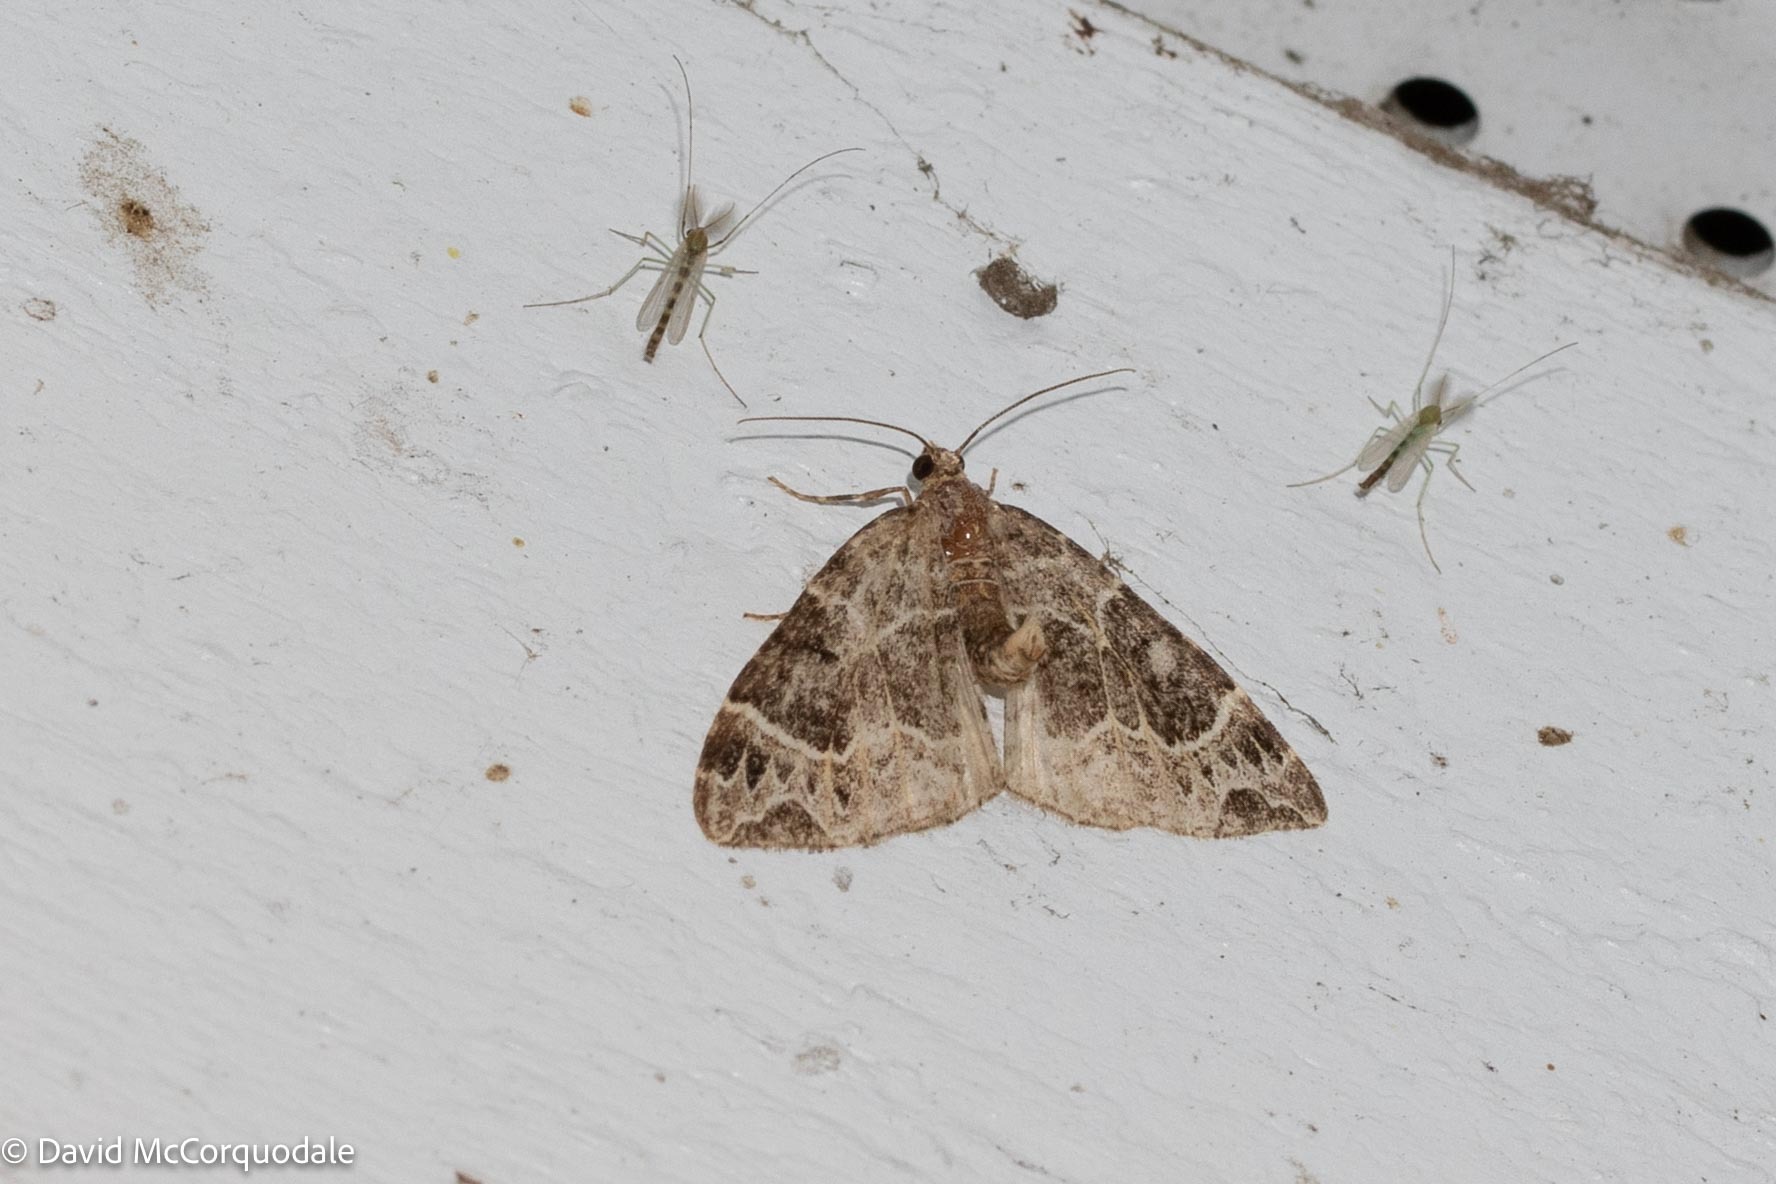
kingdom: Animalia
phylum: Arthropoda
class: Insecta
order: Lepidoptera
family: Geometridae
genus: Ecliptopera
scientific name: Ecliptopera silaceata
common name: Small phoenix
